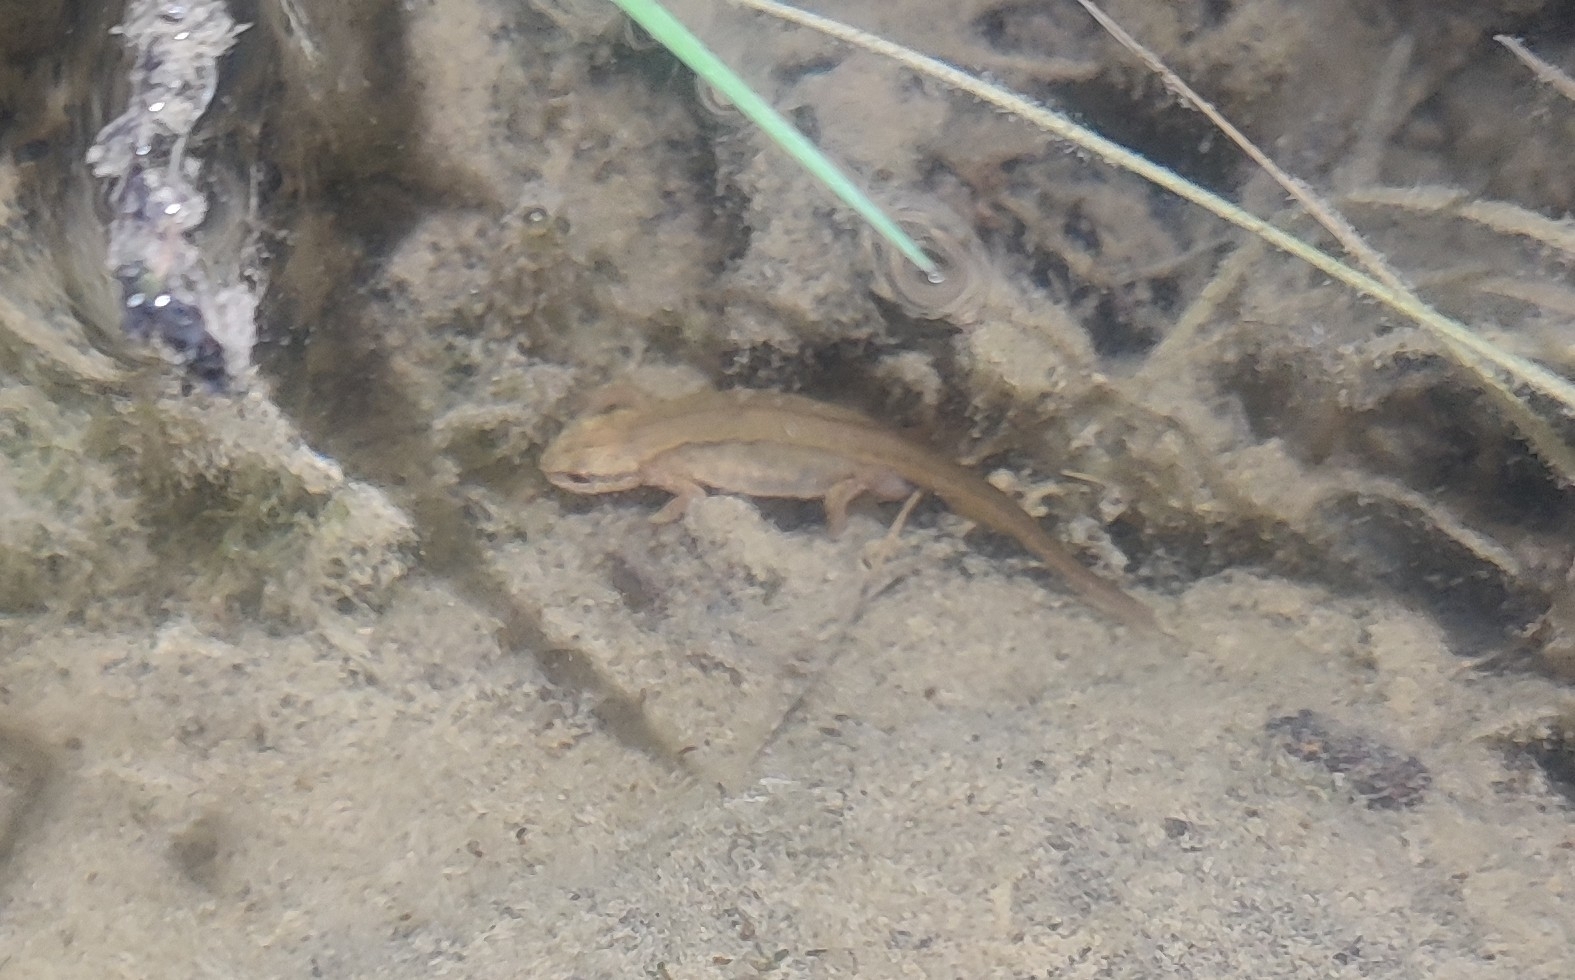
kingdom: Animalia
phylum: Chordata
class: Amphibia
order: Caudata
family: Salamandridae
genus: Lissotriton
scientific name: Lissotriton helveticus
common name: Palmate newt
